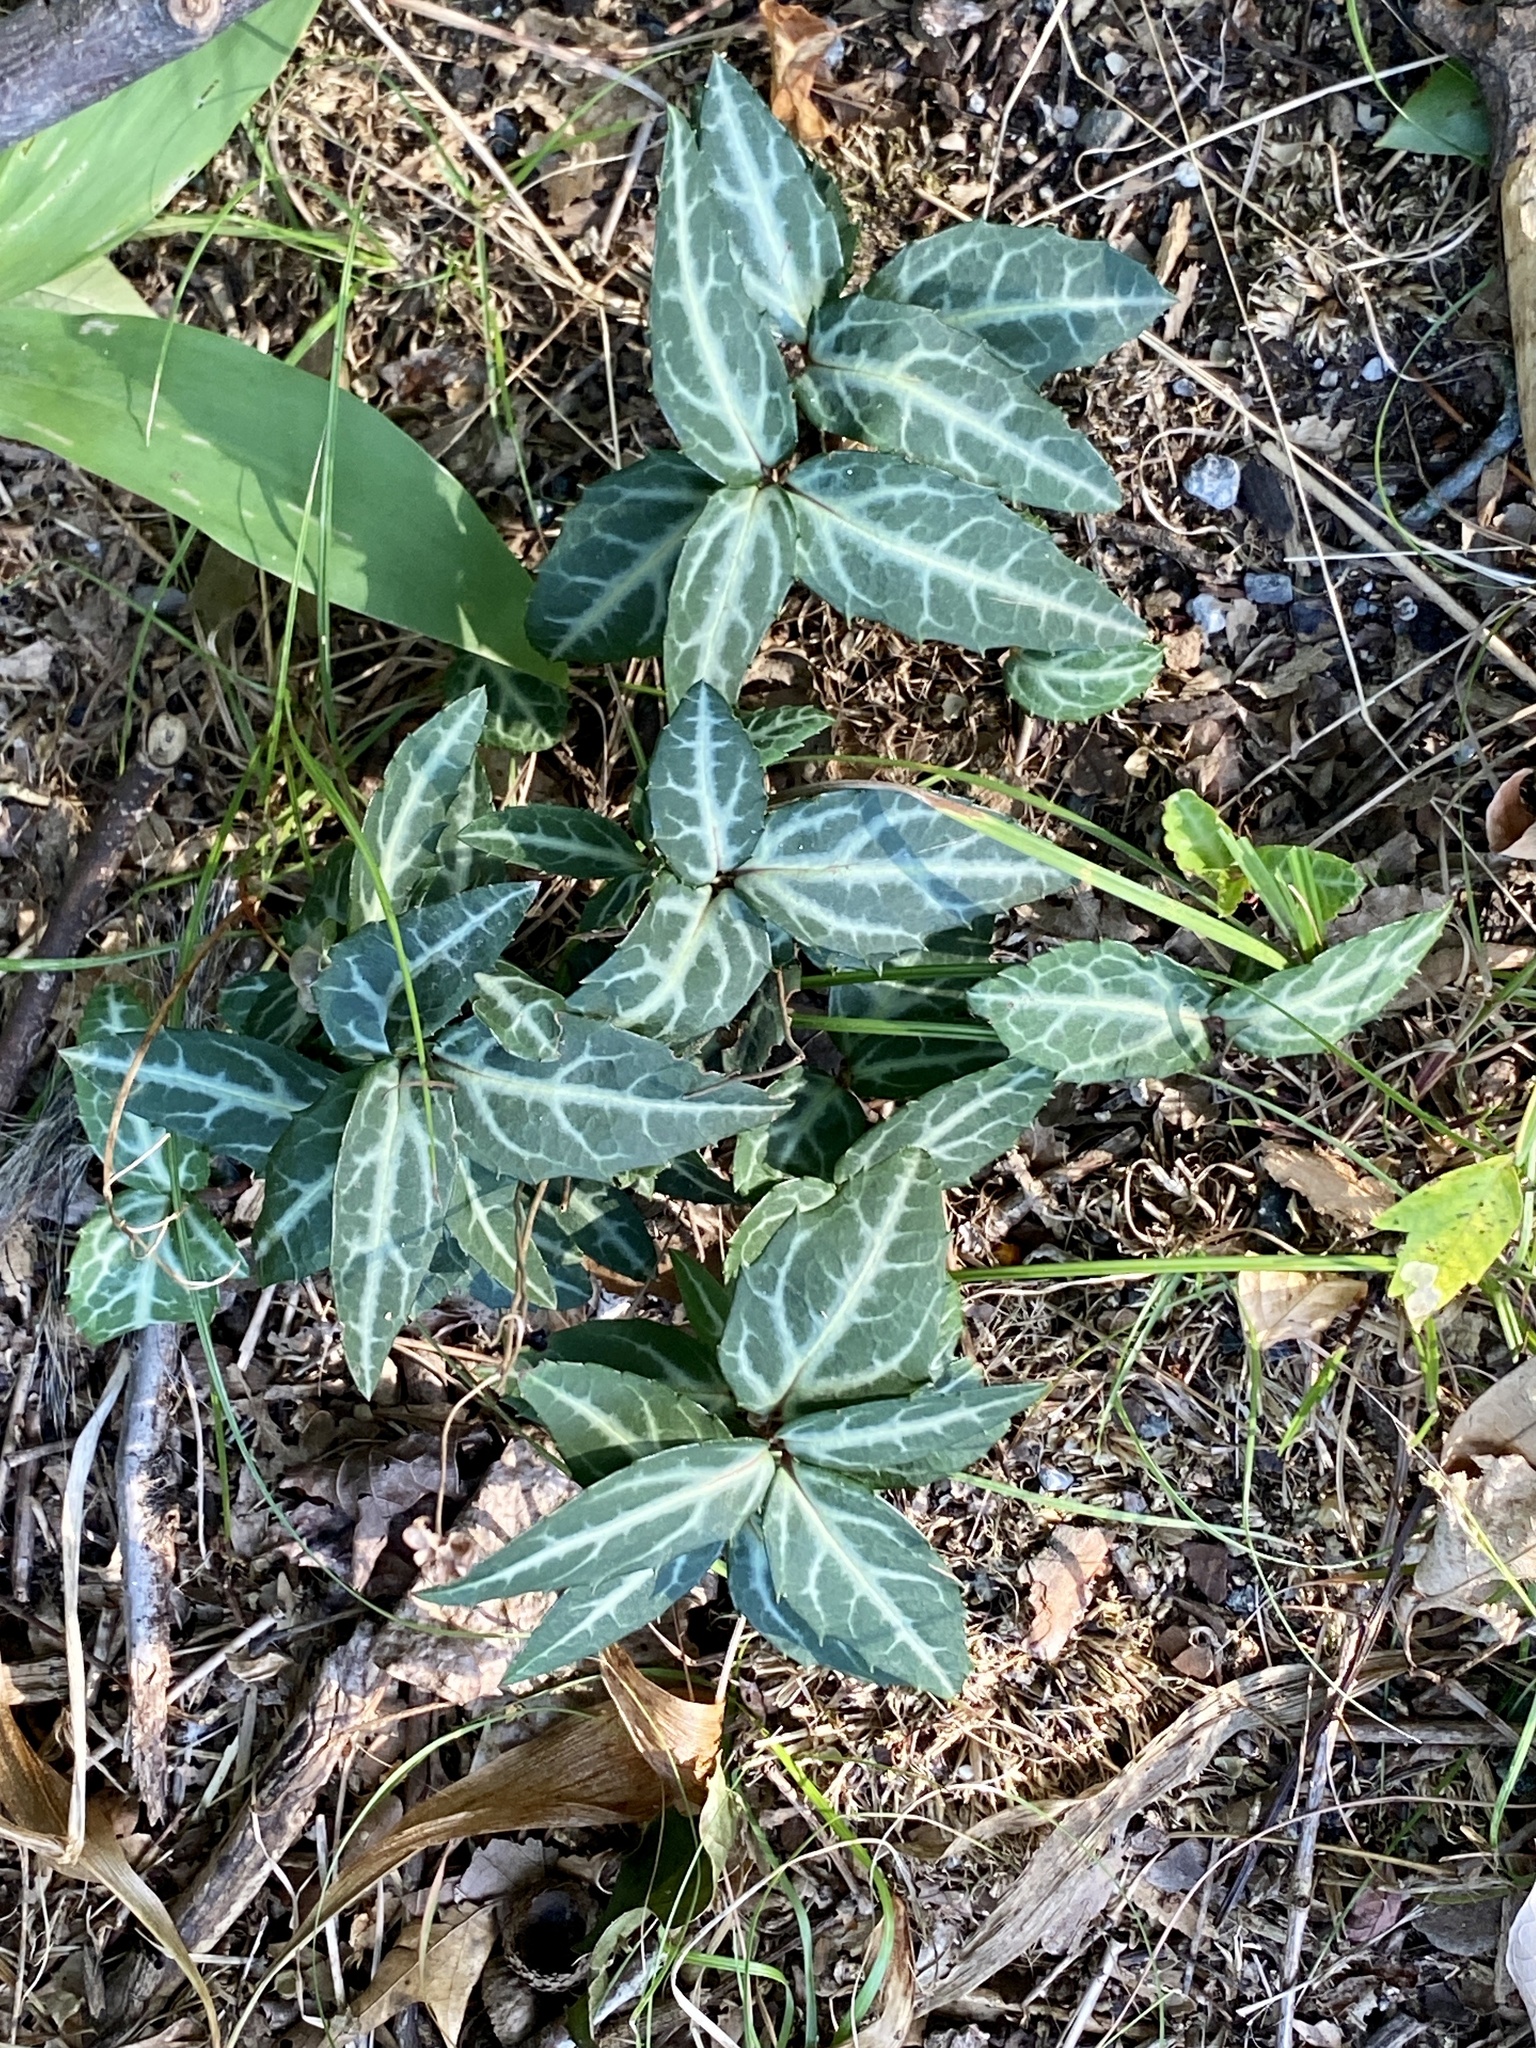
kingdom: Plantae
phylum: Tracheophyta
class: Magnoliopsida
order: Ericales
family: Ericaceae
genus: Chimaphila
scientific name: Chimaphila maculata
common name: Spotted pipsissewa
